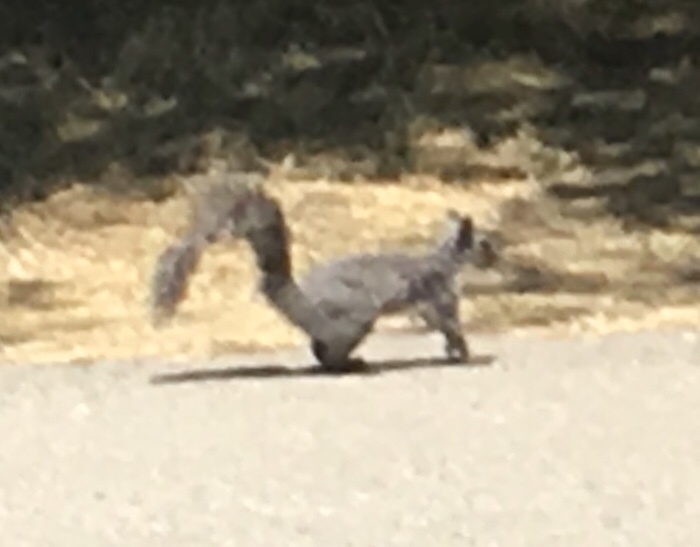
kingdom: Animalia
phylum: Chordata
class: Mammalia
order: Rodentia
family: Sciuridae
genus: Sciurus
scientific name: Sciurus griseus
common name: Western gray squirrel
